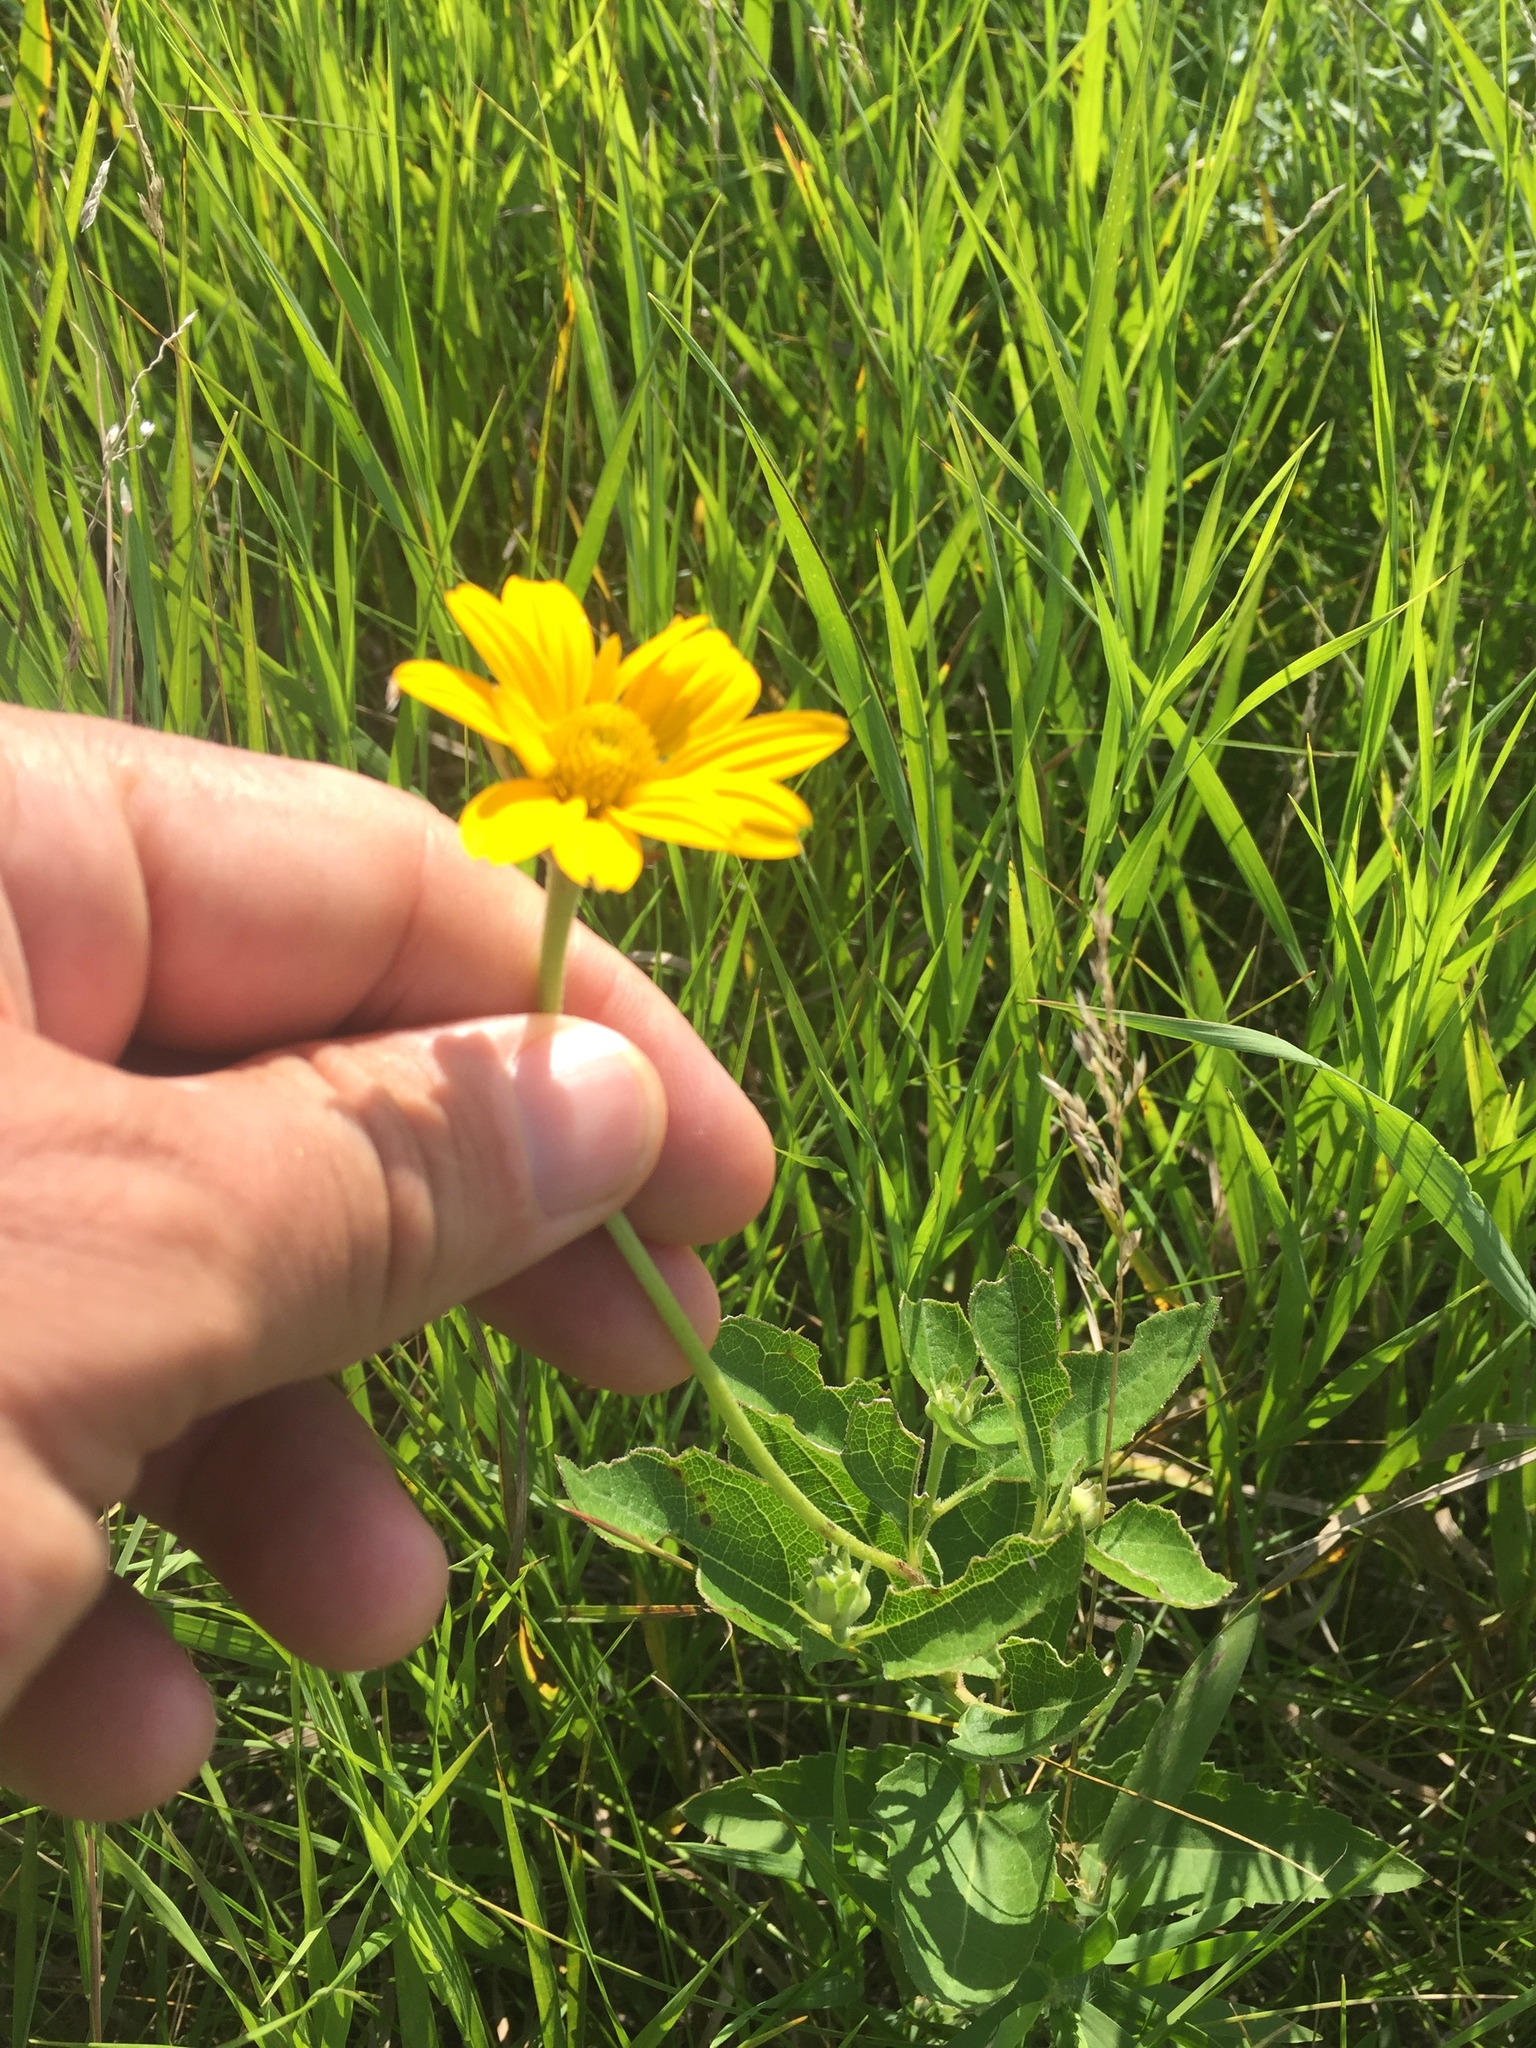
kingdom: Plantae
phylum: Tracheophyta
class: Magnoliopsida
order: Asterales
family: Asteraceae
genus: Heliopsis
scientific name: Heliopsis helianthoides
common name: False sunflower
